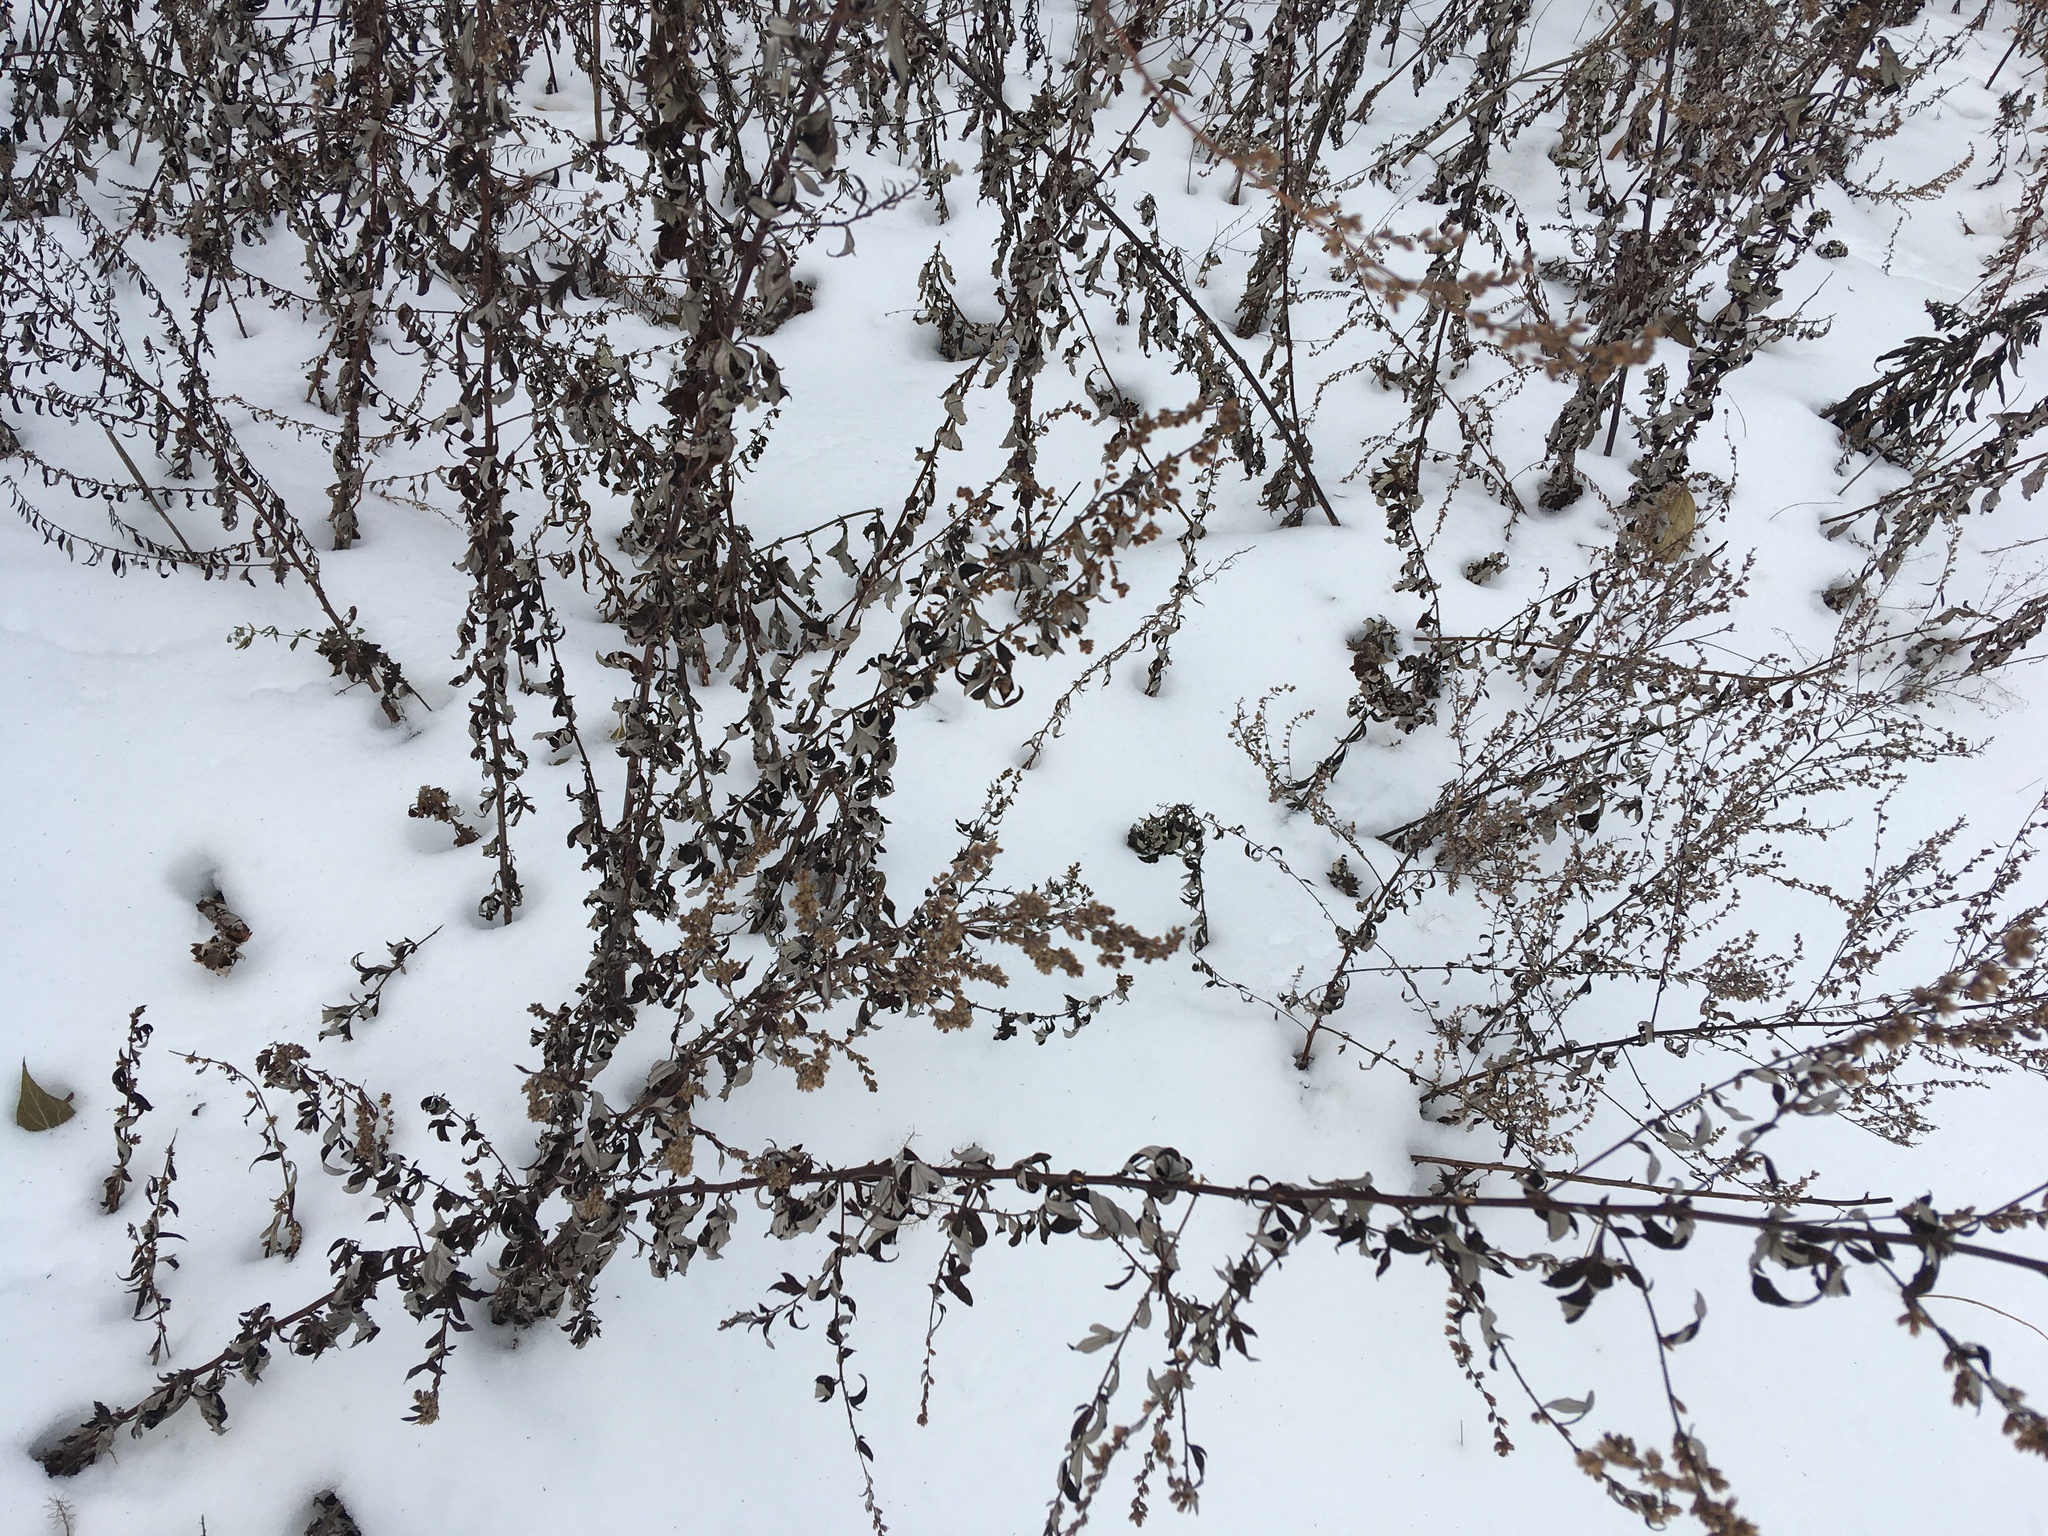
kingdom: Plantae
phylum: Tracheophyta
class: Magnoliopsida
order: Asterales
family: Asteraceae
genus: Artemisia
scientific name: Artemisia vulgaris
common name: Mugwort
